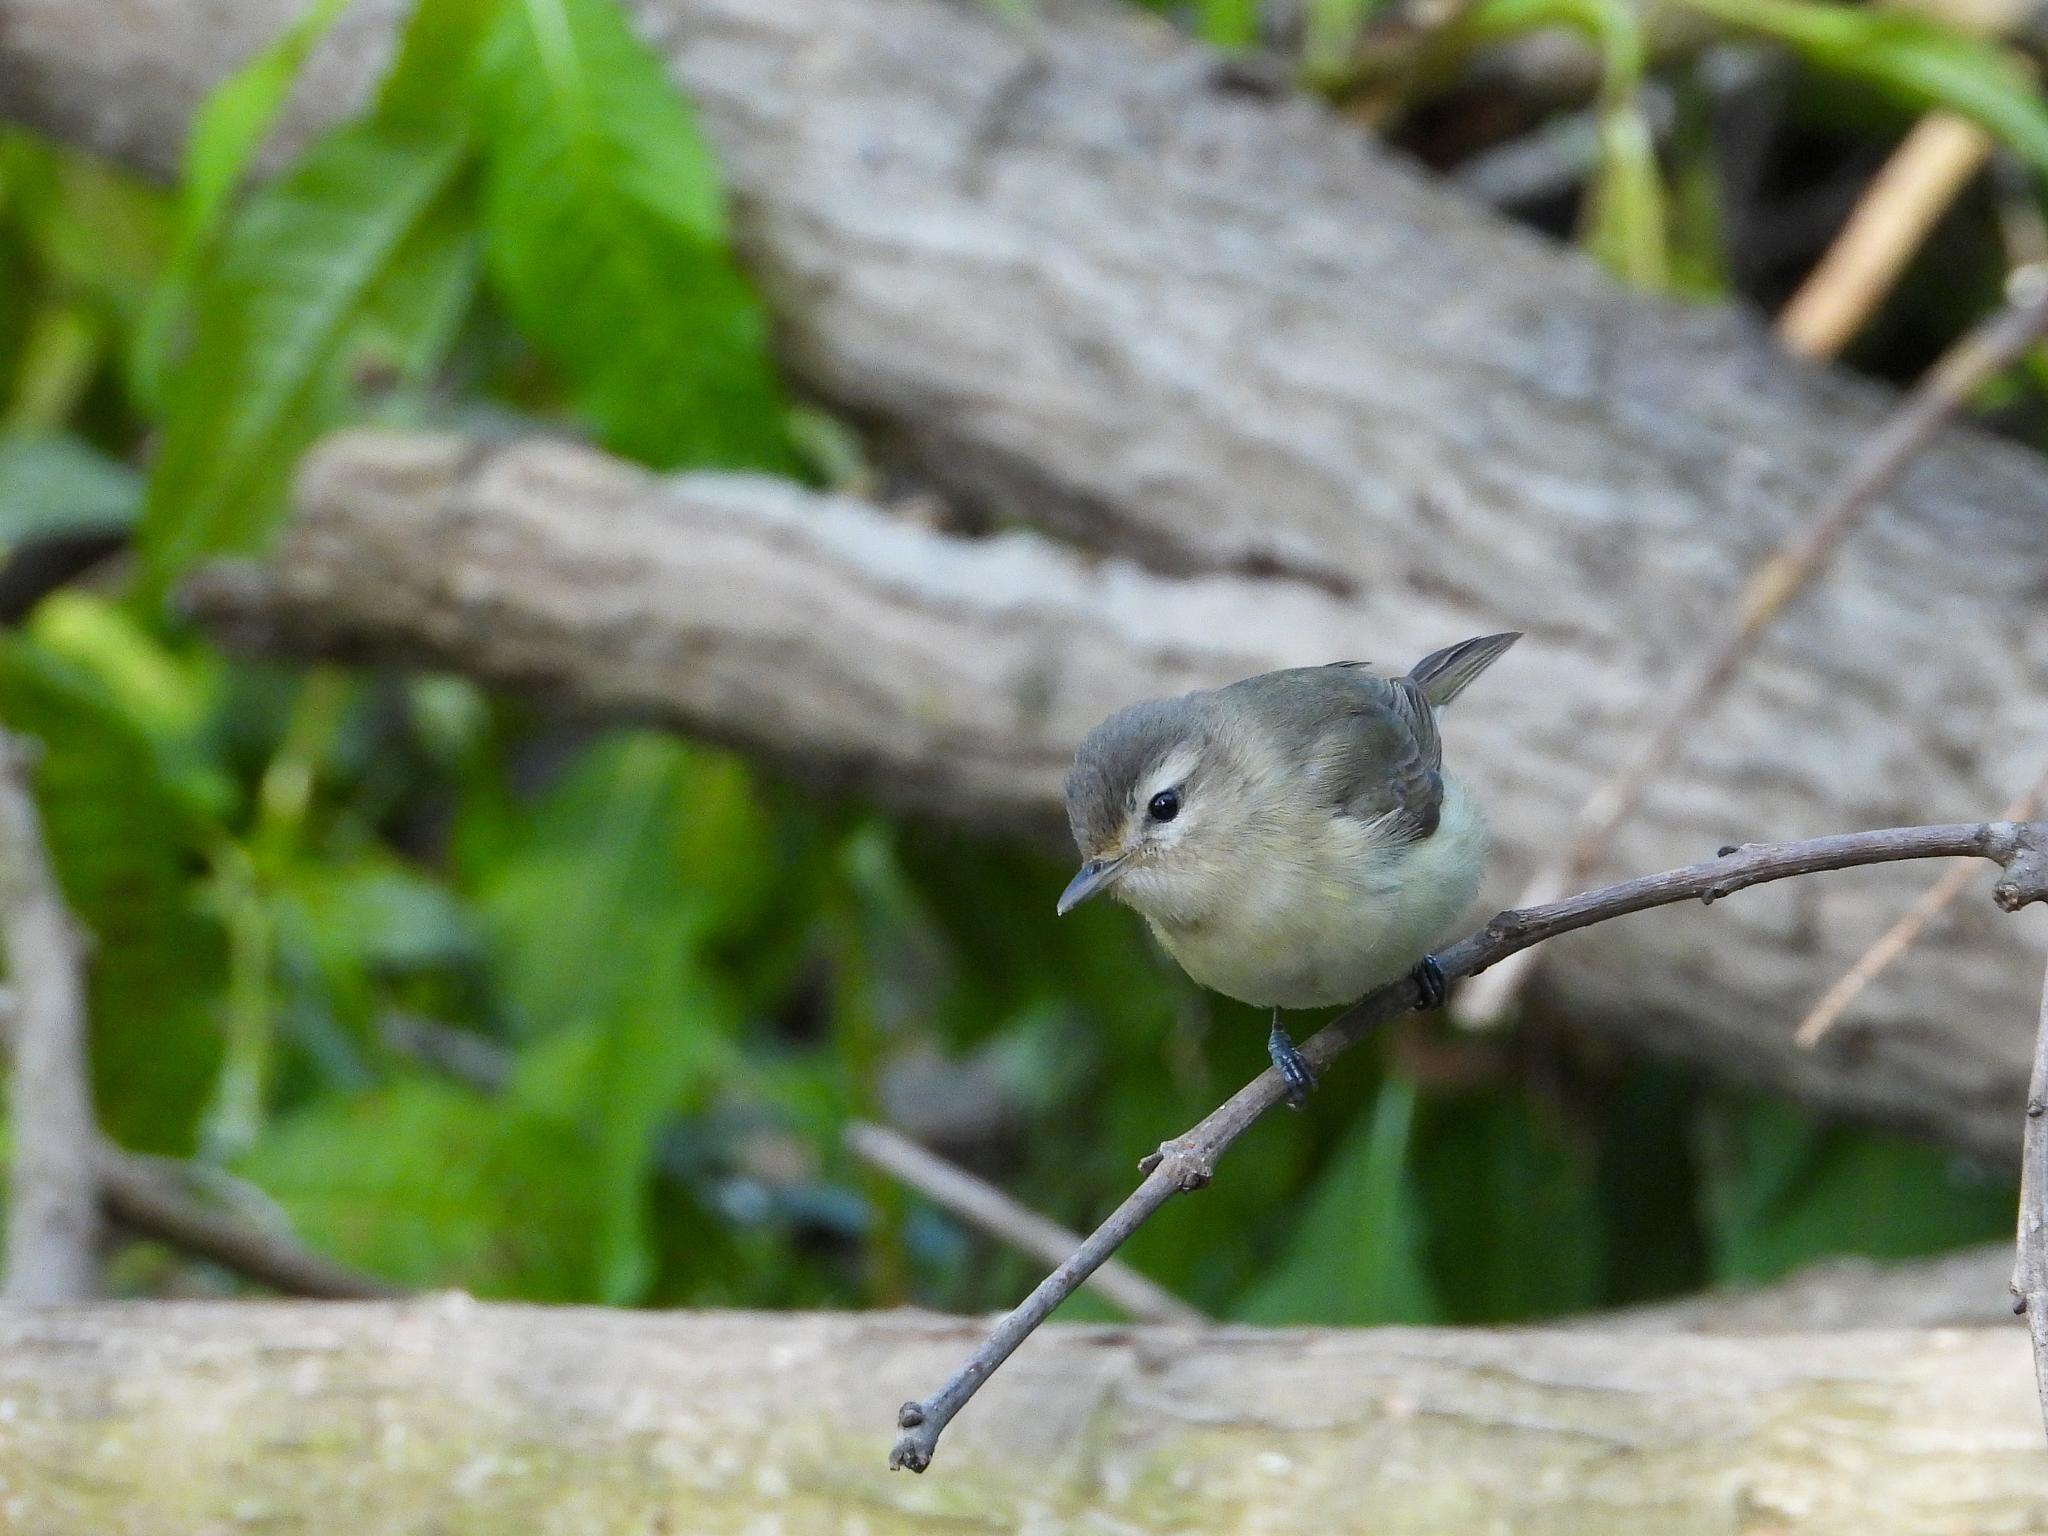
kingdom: Animalia
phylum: Chordata
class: Aves
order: Passeriformes
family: Vireonidae
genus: Vireo
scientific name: Vireo gilvus
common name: Warbling vireo
